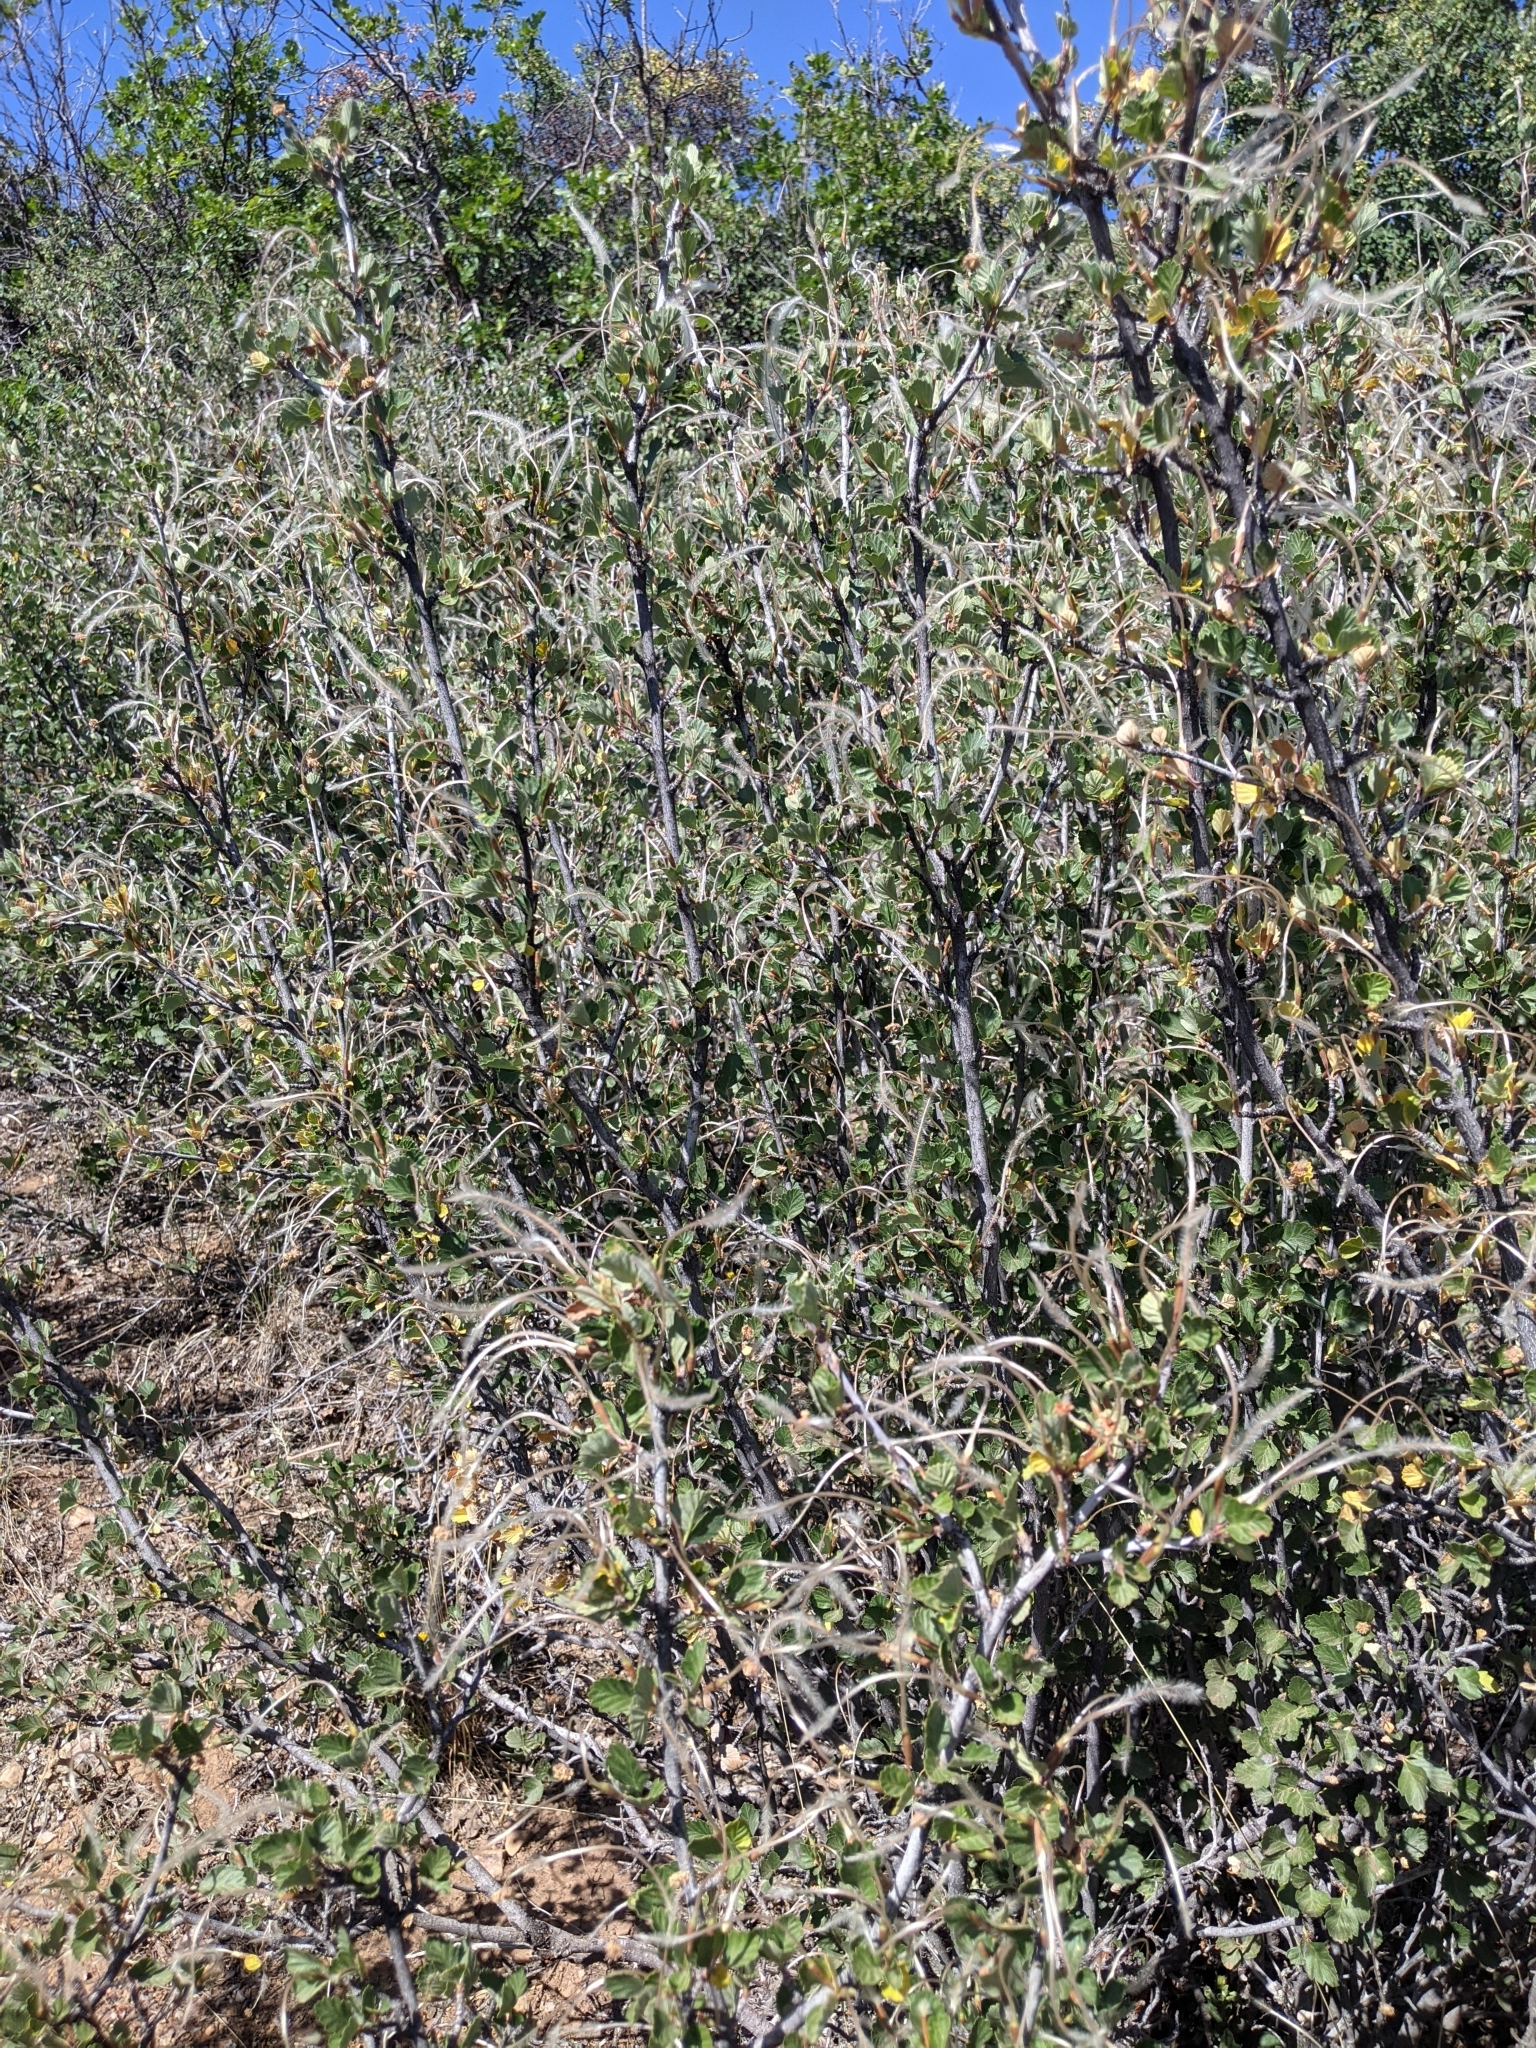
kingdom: Plantae
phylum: Tracheophyta
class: Magnoliopsida
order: Rosales
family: Rosaceae
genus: Cercocarpus
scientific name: Cercocarpus montanus
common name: Alder-leaf cercocarpus
